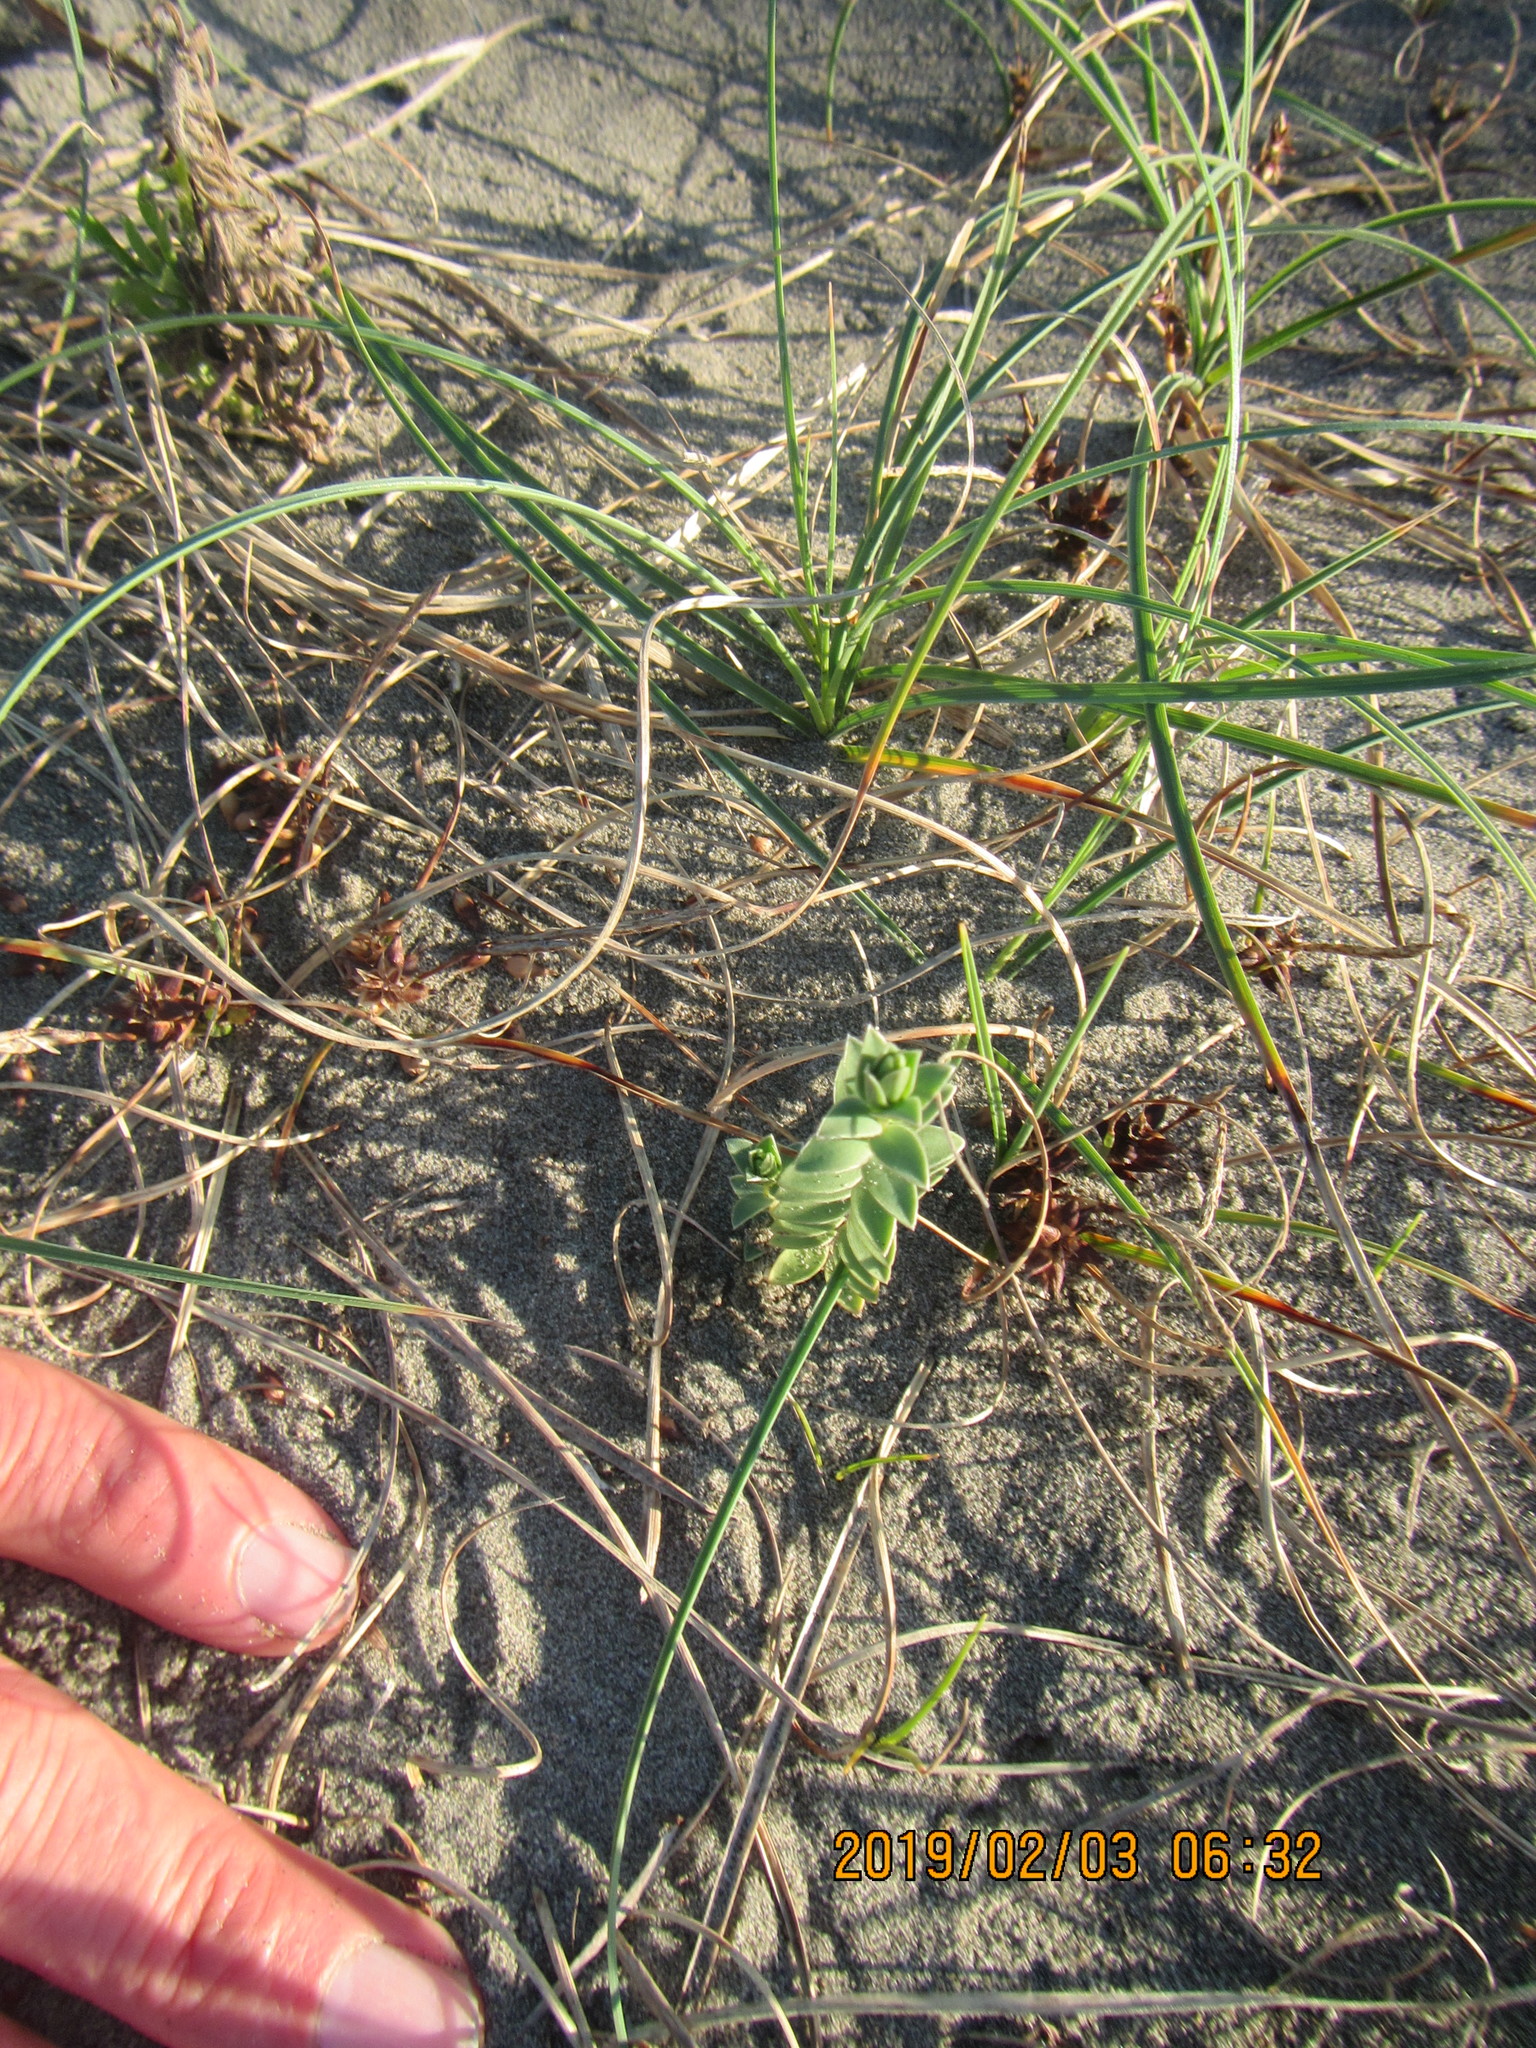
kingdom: Plantae
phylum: Tracheophyta
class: Magnoliopsida
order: Malvales
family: Thymelaeaceae
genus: Pimelea
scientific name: Pimelea villosa
